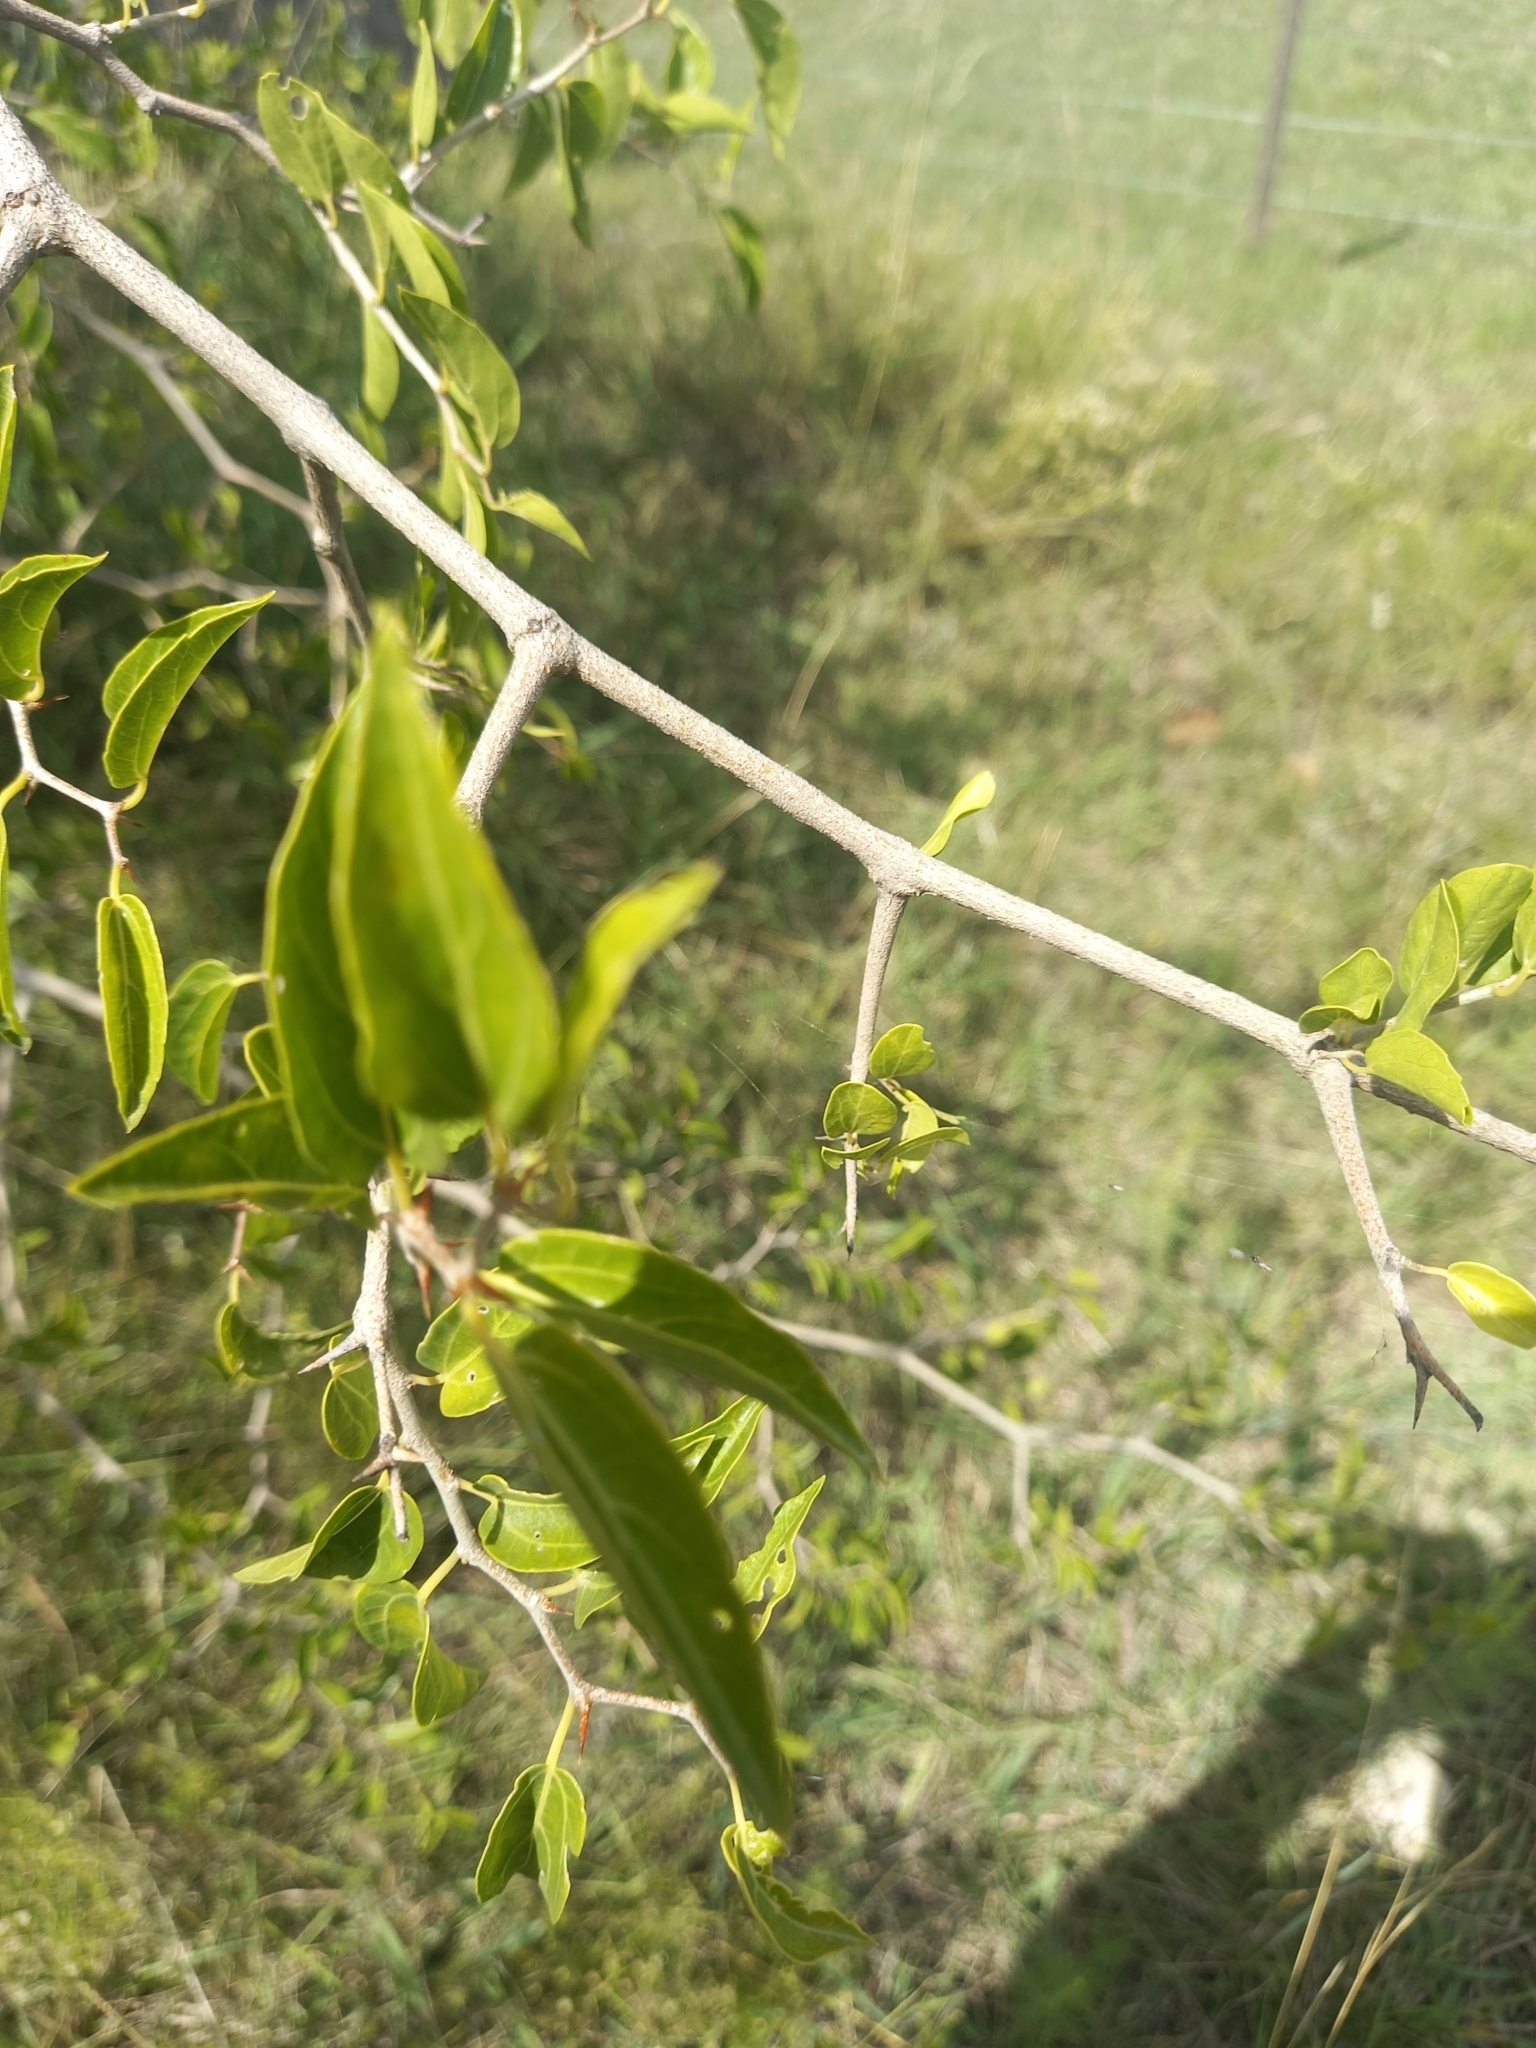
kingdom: Plantae
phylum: Tracheophyta
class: Magnoliopsida
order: Rosales
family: Cannabaceae
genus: Celtis
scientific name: Celtis tala
